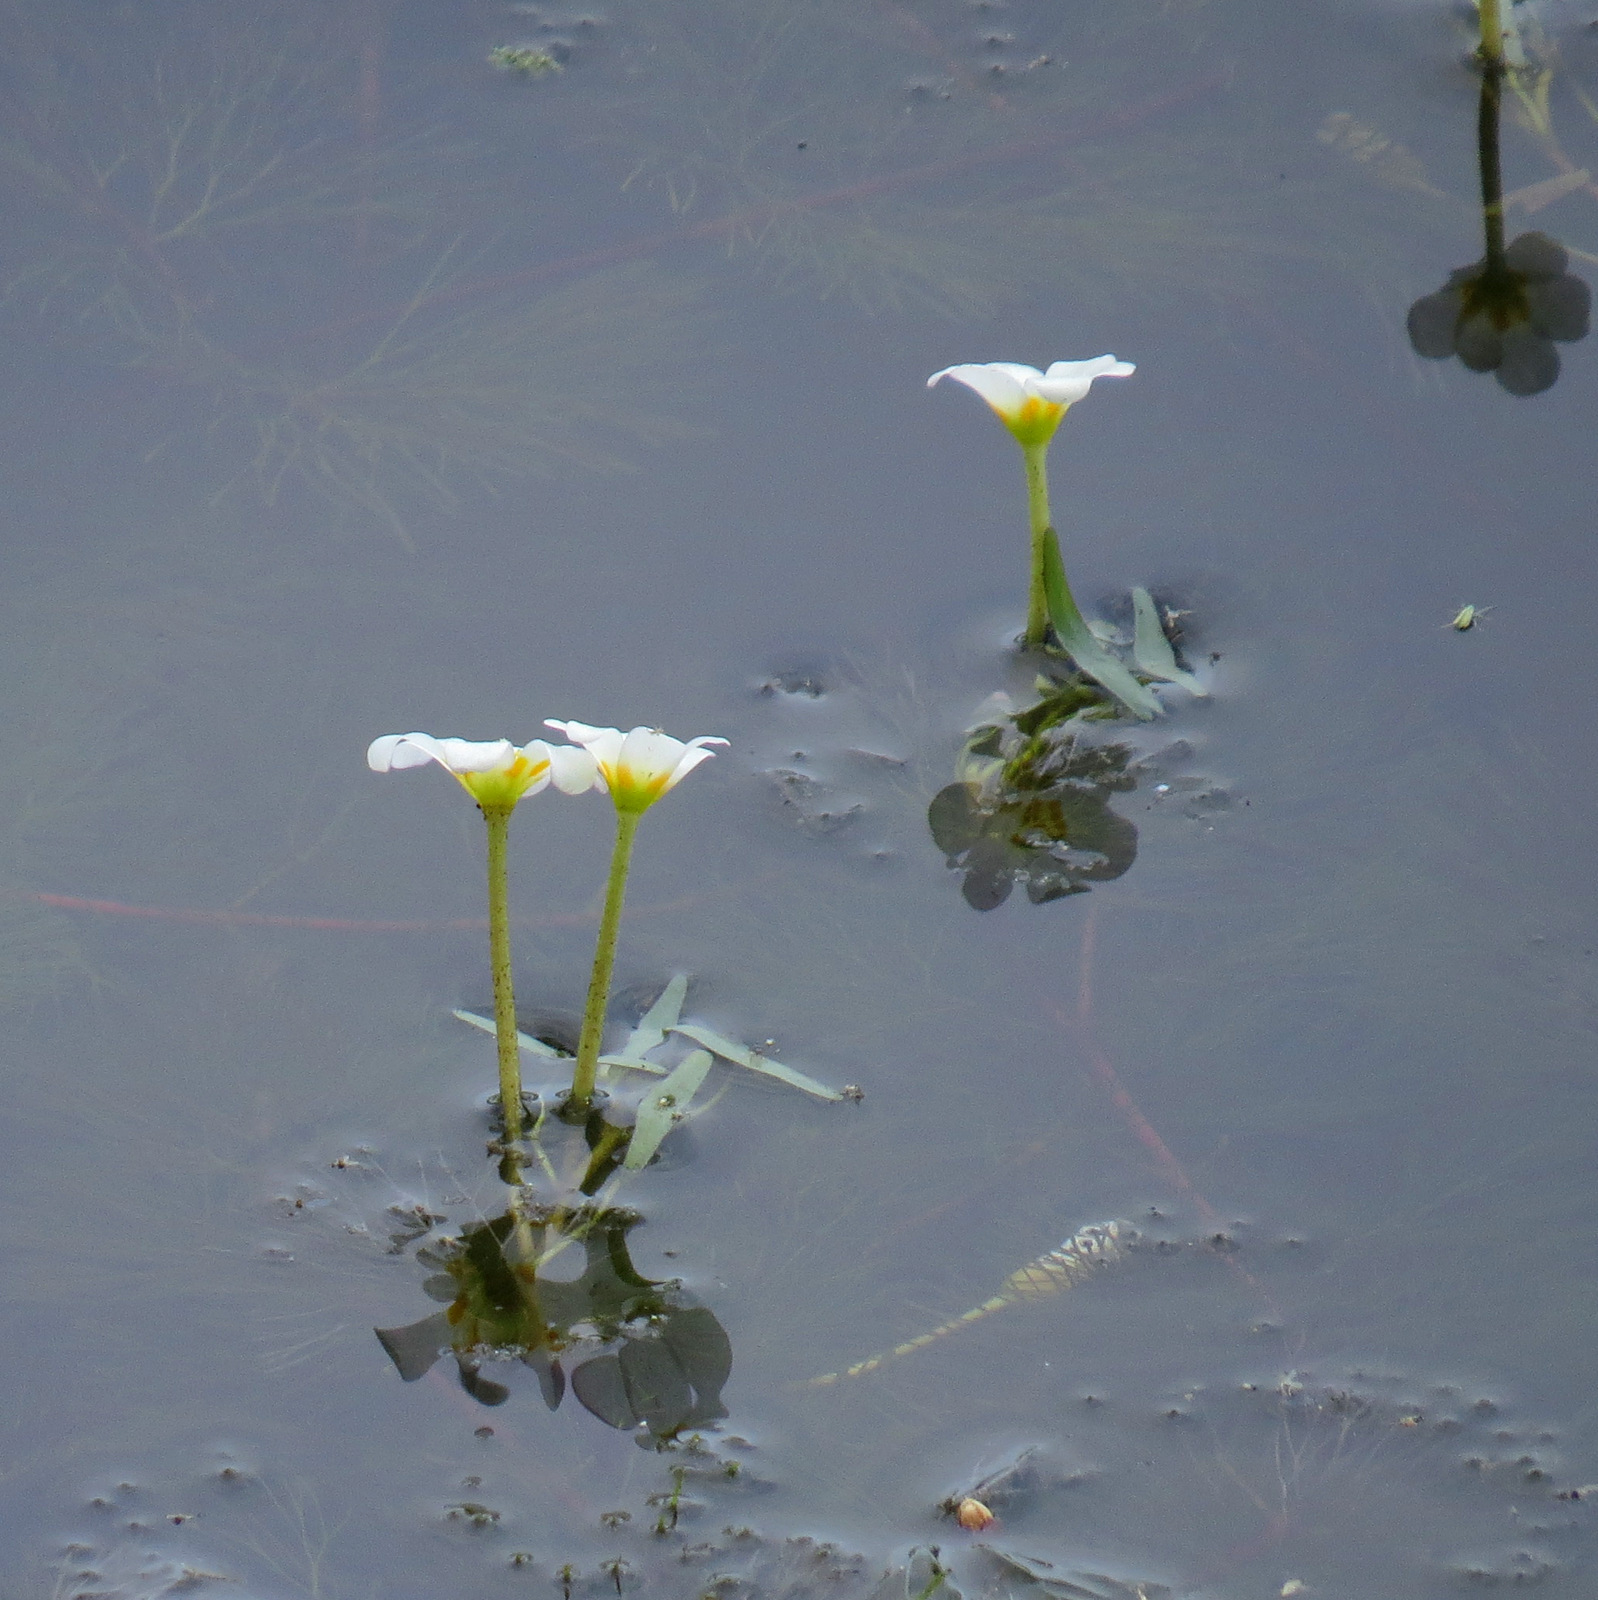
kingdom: Plantae
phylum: Tracheophyta
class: Magnoliopsida
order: Nymphaeales
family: Cabombaceae
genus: Cabomba
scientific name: Cabomba caroliniana
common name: Fanwort
